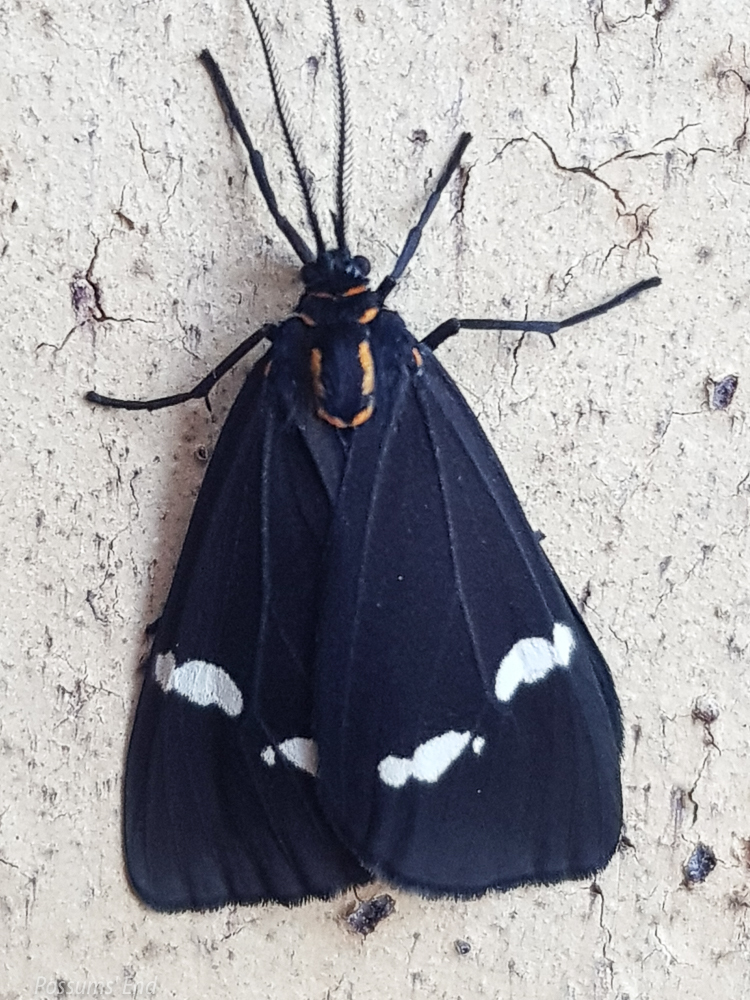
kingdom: Animalia
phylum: Arthropoda
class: Insecta
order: Lepidoptera
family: Erebidae
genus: Nyctemera
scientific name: Nyctemera annulatum
